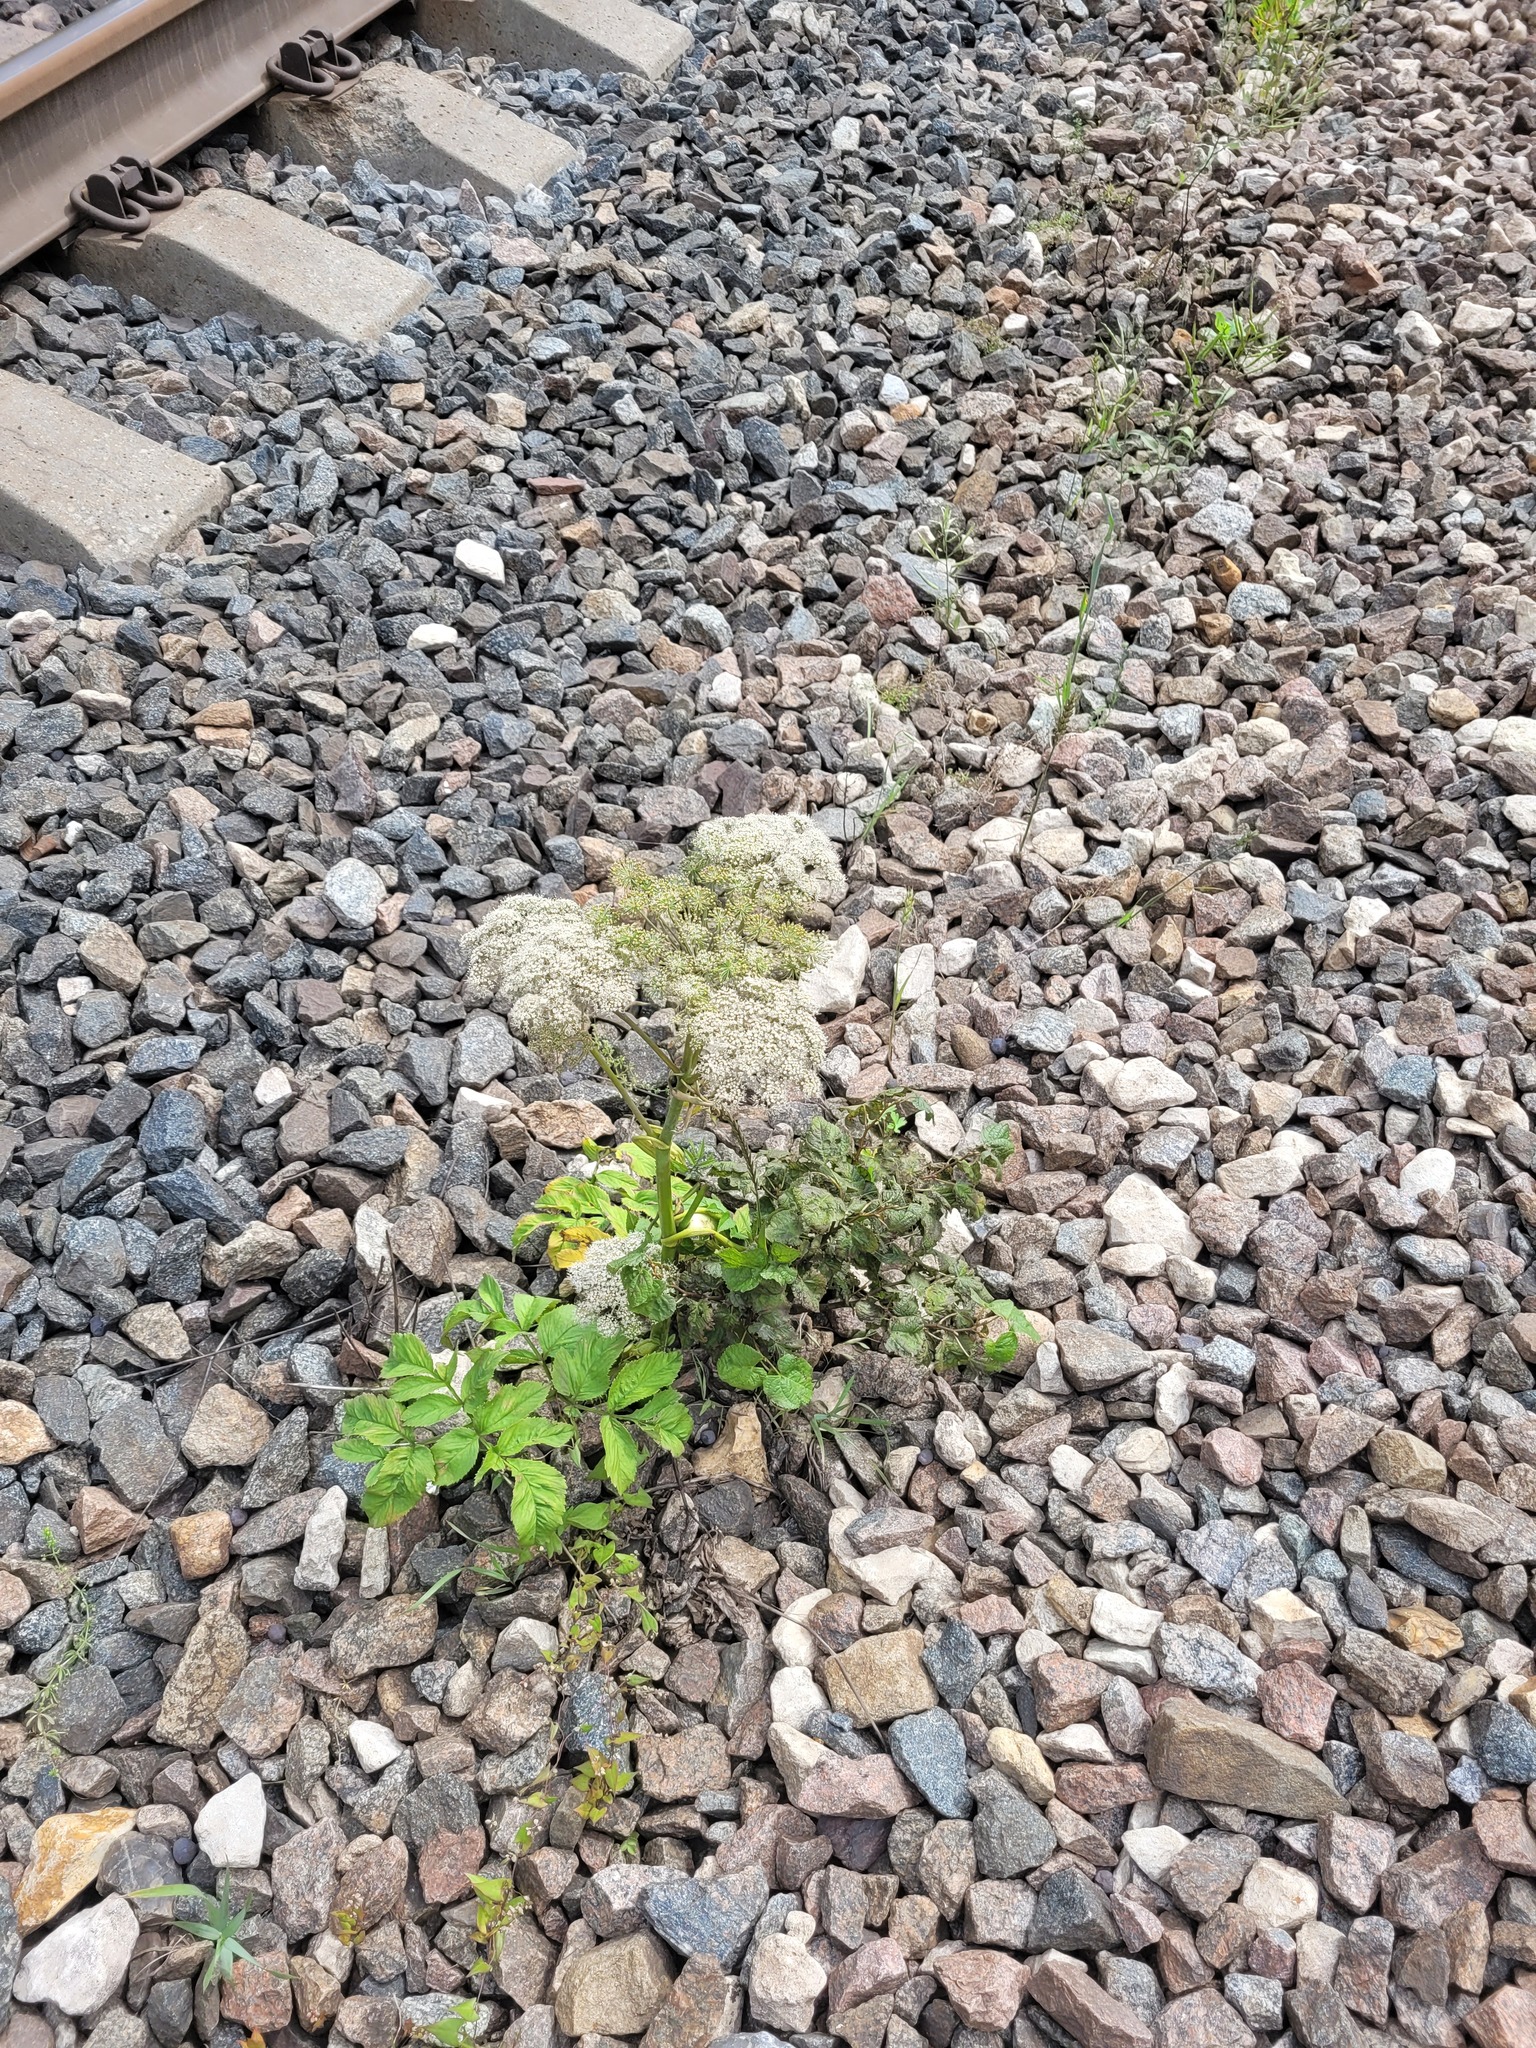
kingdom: Plantae
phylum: Tracheophyta
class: Magnoliopsida
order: Apiales
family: Apiaceae
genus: Angelica
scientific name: Angelica sylvestris
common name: Wild angelica
